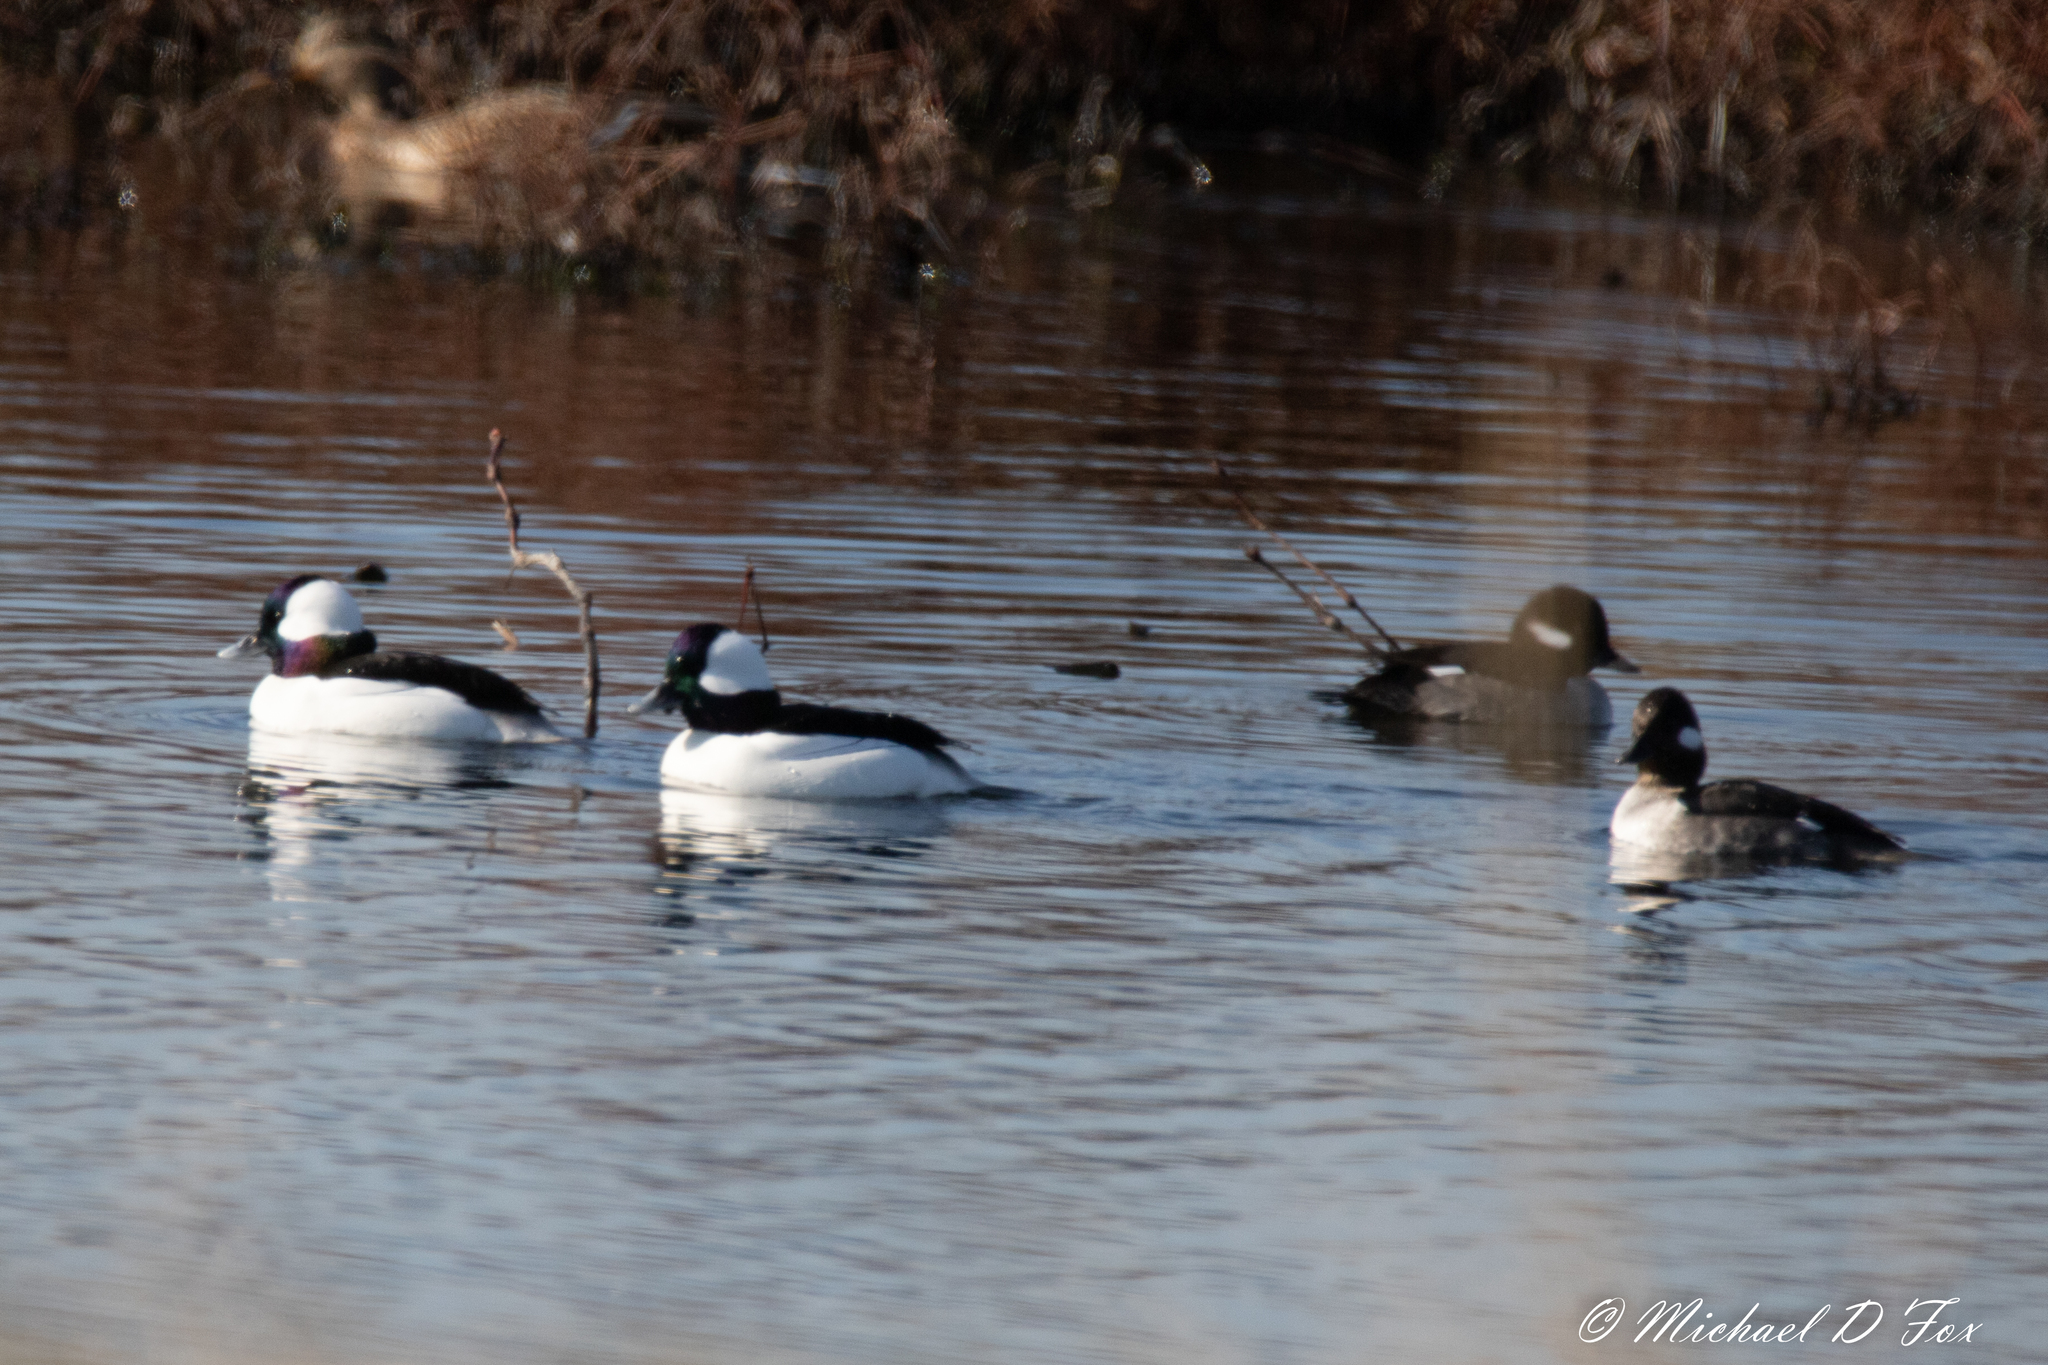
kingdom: Animalia
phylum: Chordata
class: Aves
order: Anseriformes
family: Anatidae
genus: Bucephala
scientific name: Bucephala albeola
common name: Bufflehead
